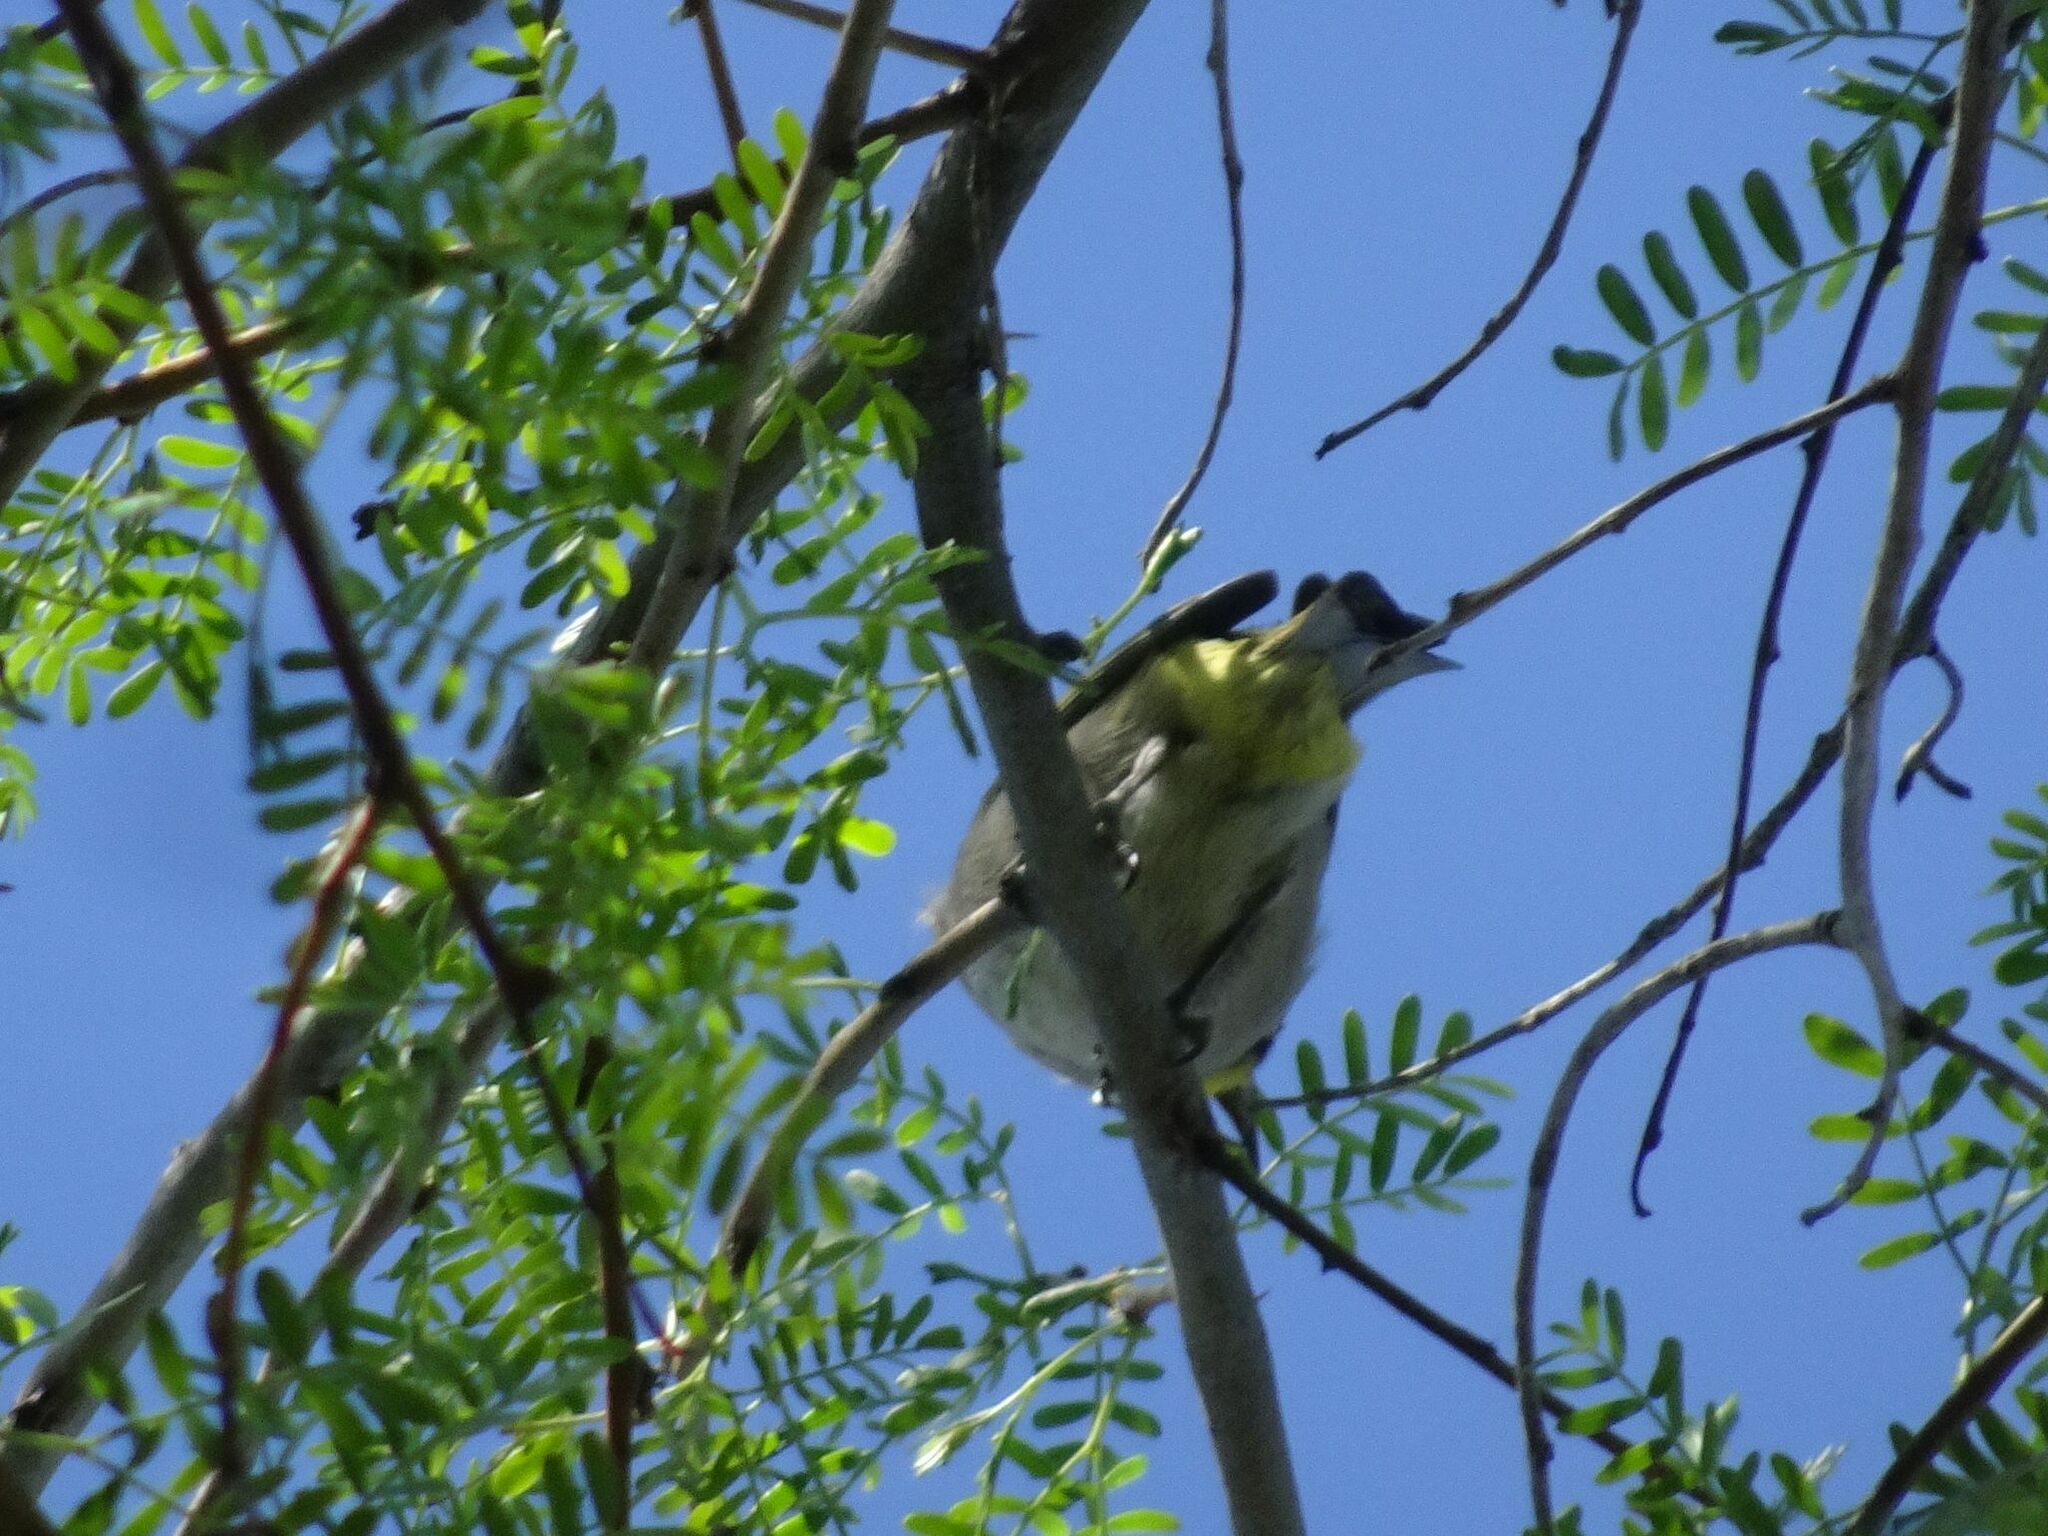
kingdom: Animalia
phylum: Chordata
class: Aves
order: Passeriformes
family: Zosteropidae
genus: Zosterops
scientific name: Zosterops virens
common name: Cape white-eye
